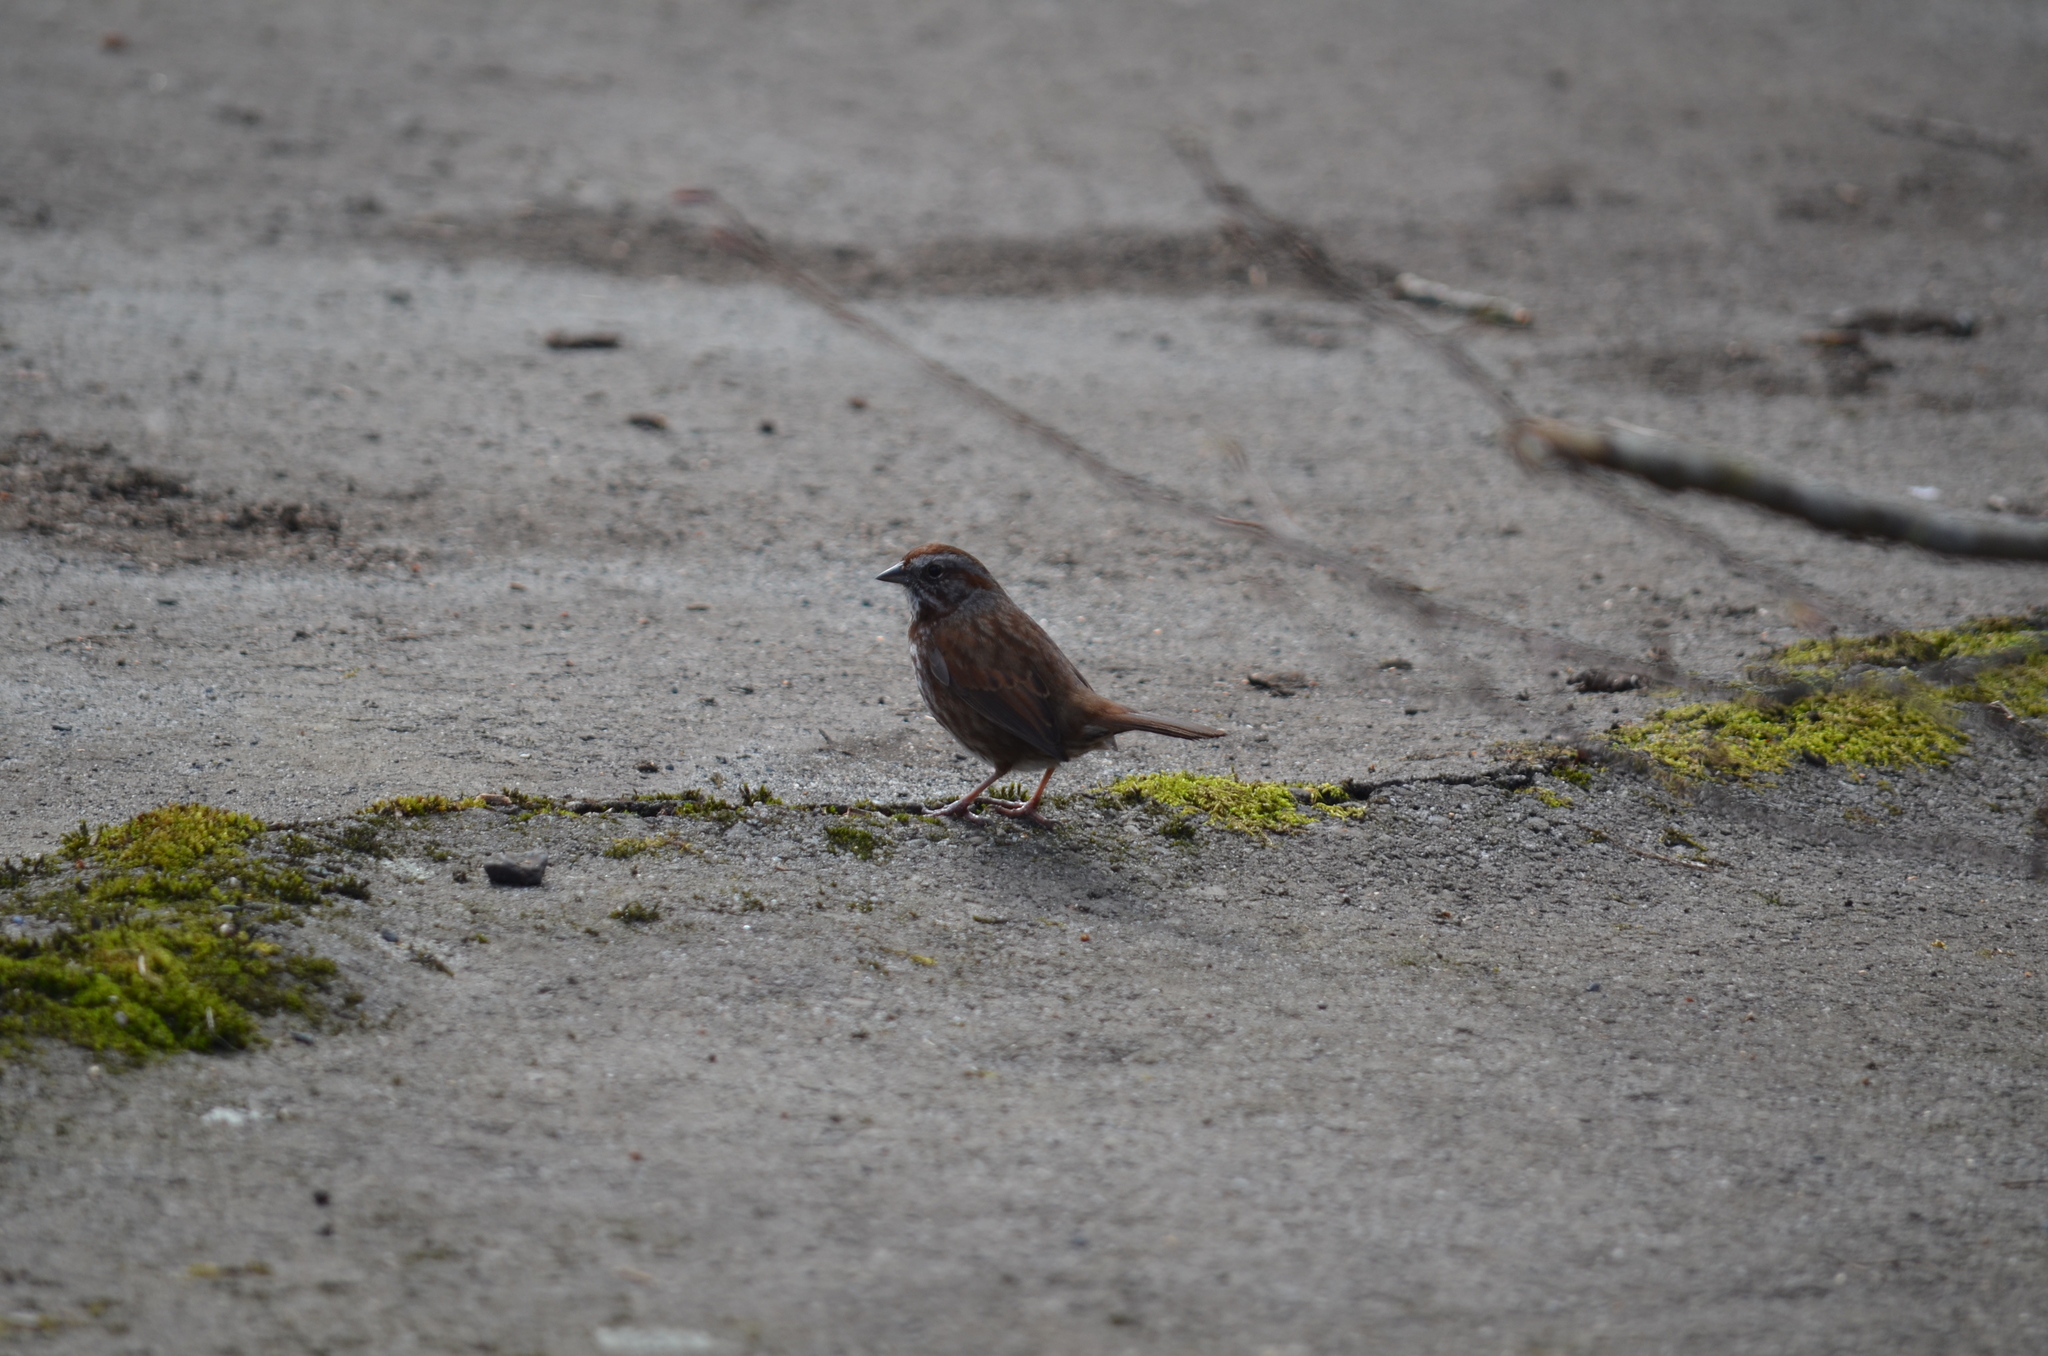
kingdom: Animalia
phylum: Chordata
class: Aves
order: Passeriformes
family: Passerellidae
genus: Melospiza
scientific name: Melospiza melodia
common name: Song sparrow
